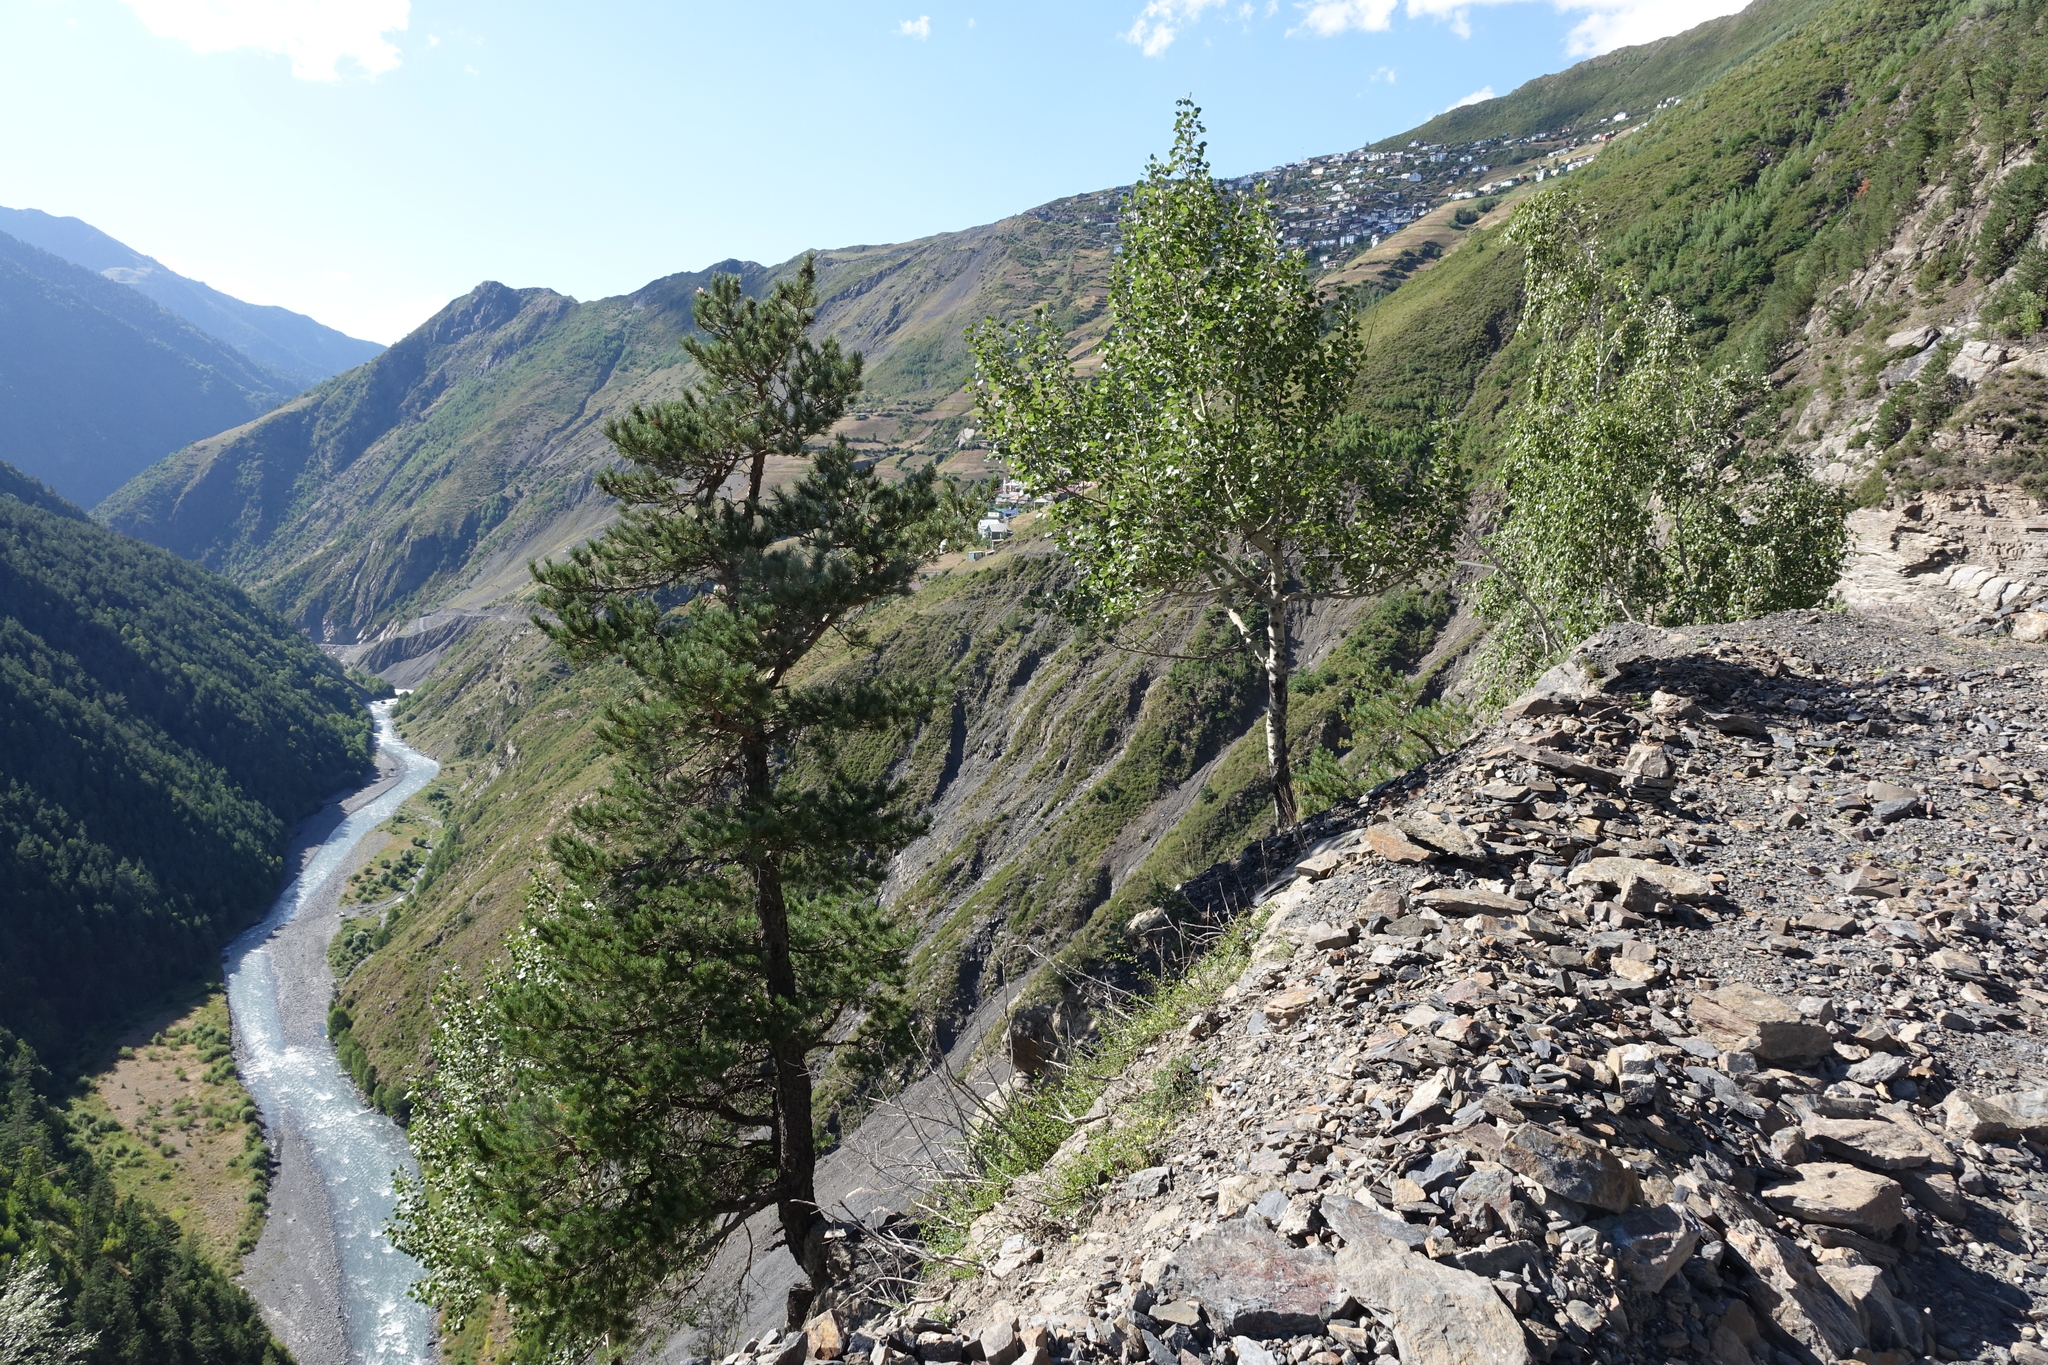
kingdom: Plantae
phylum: Tracheophyta
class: Magnoliopsida
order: Malpighiales
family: Salicaceae
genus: Populus
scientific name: Populus tremula
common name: European aspen
